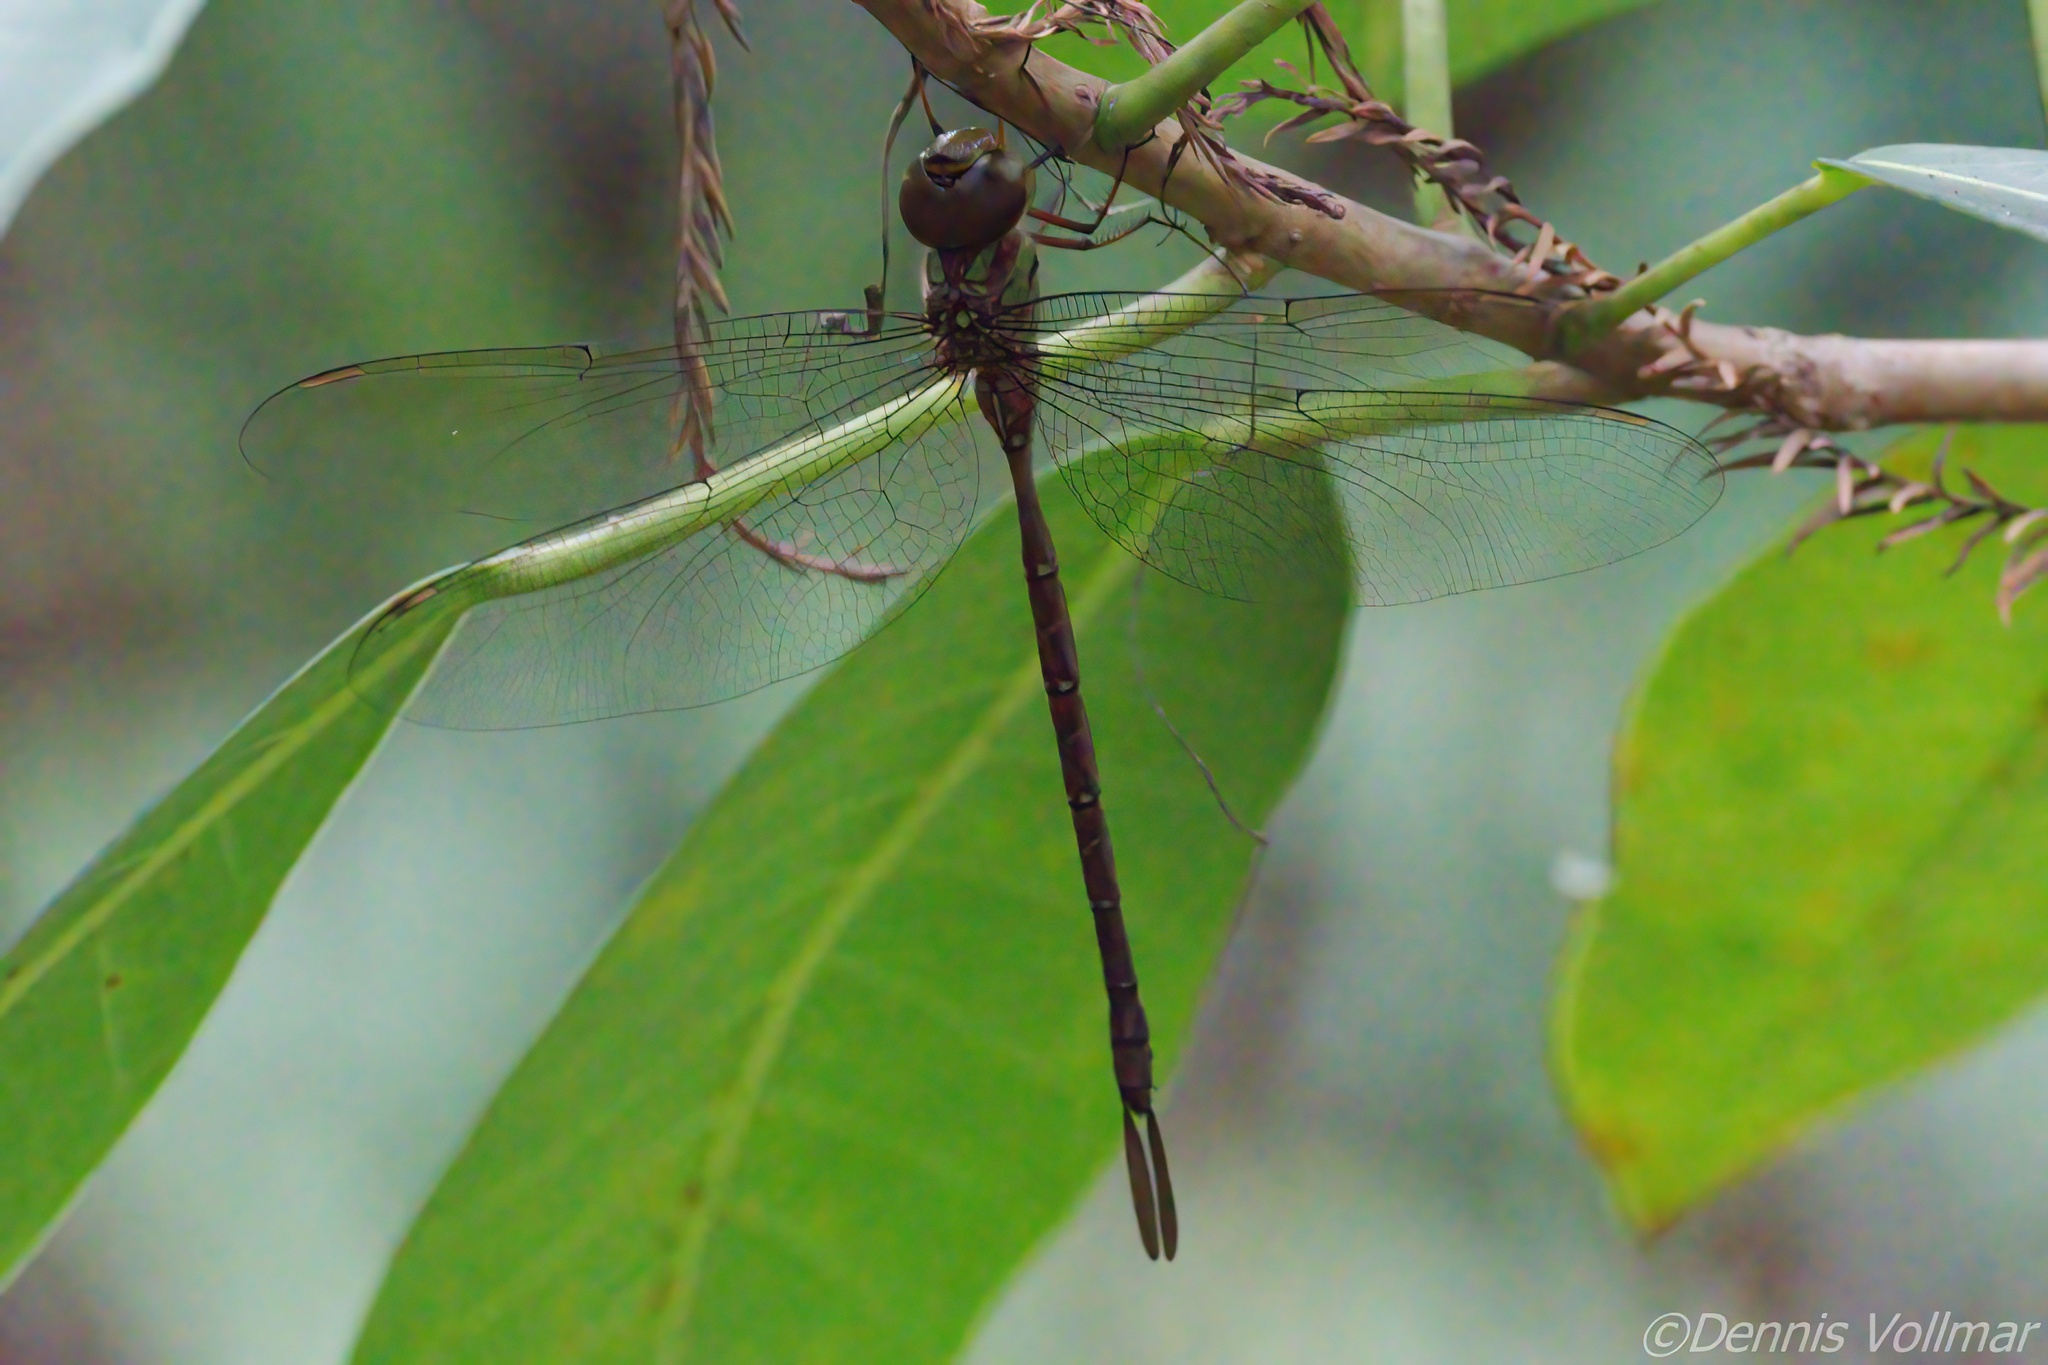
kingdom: Animalia
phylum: Arthropoda
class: Insecta
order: Odonata
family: Aeshnidae
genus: Triacanthagyna
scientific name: Triacanthagyna trifida
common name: Phantom darner
